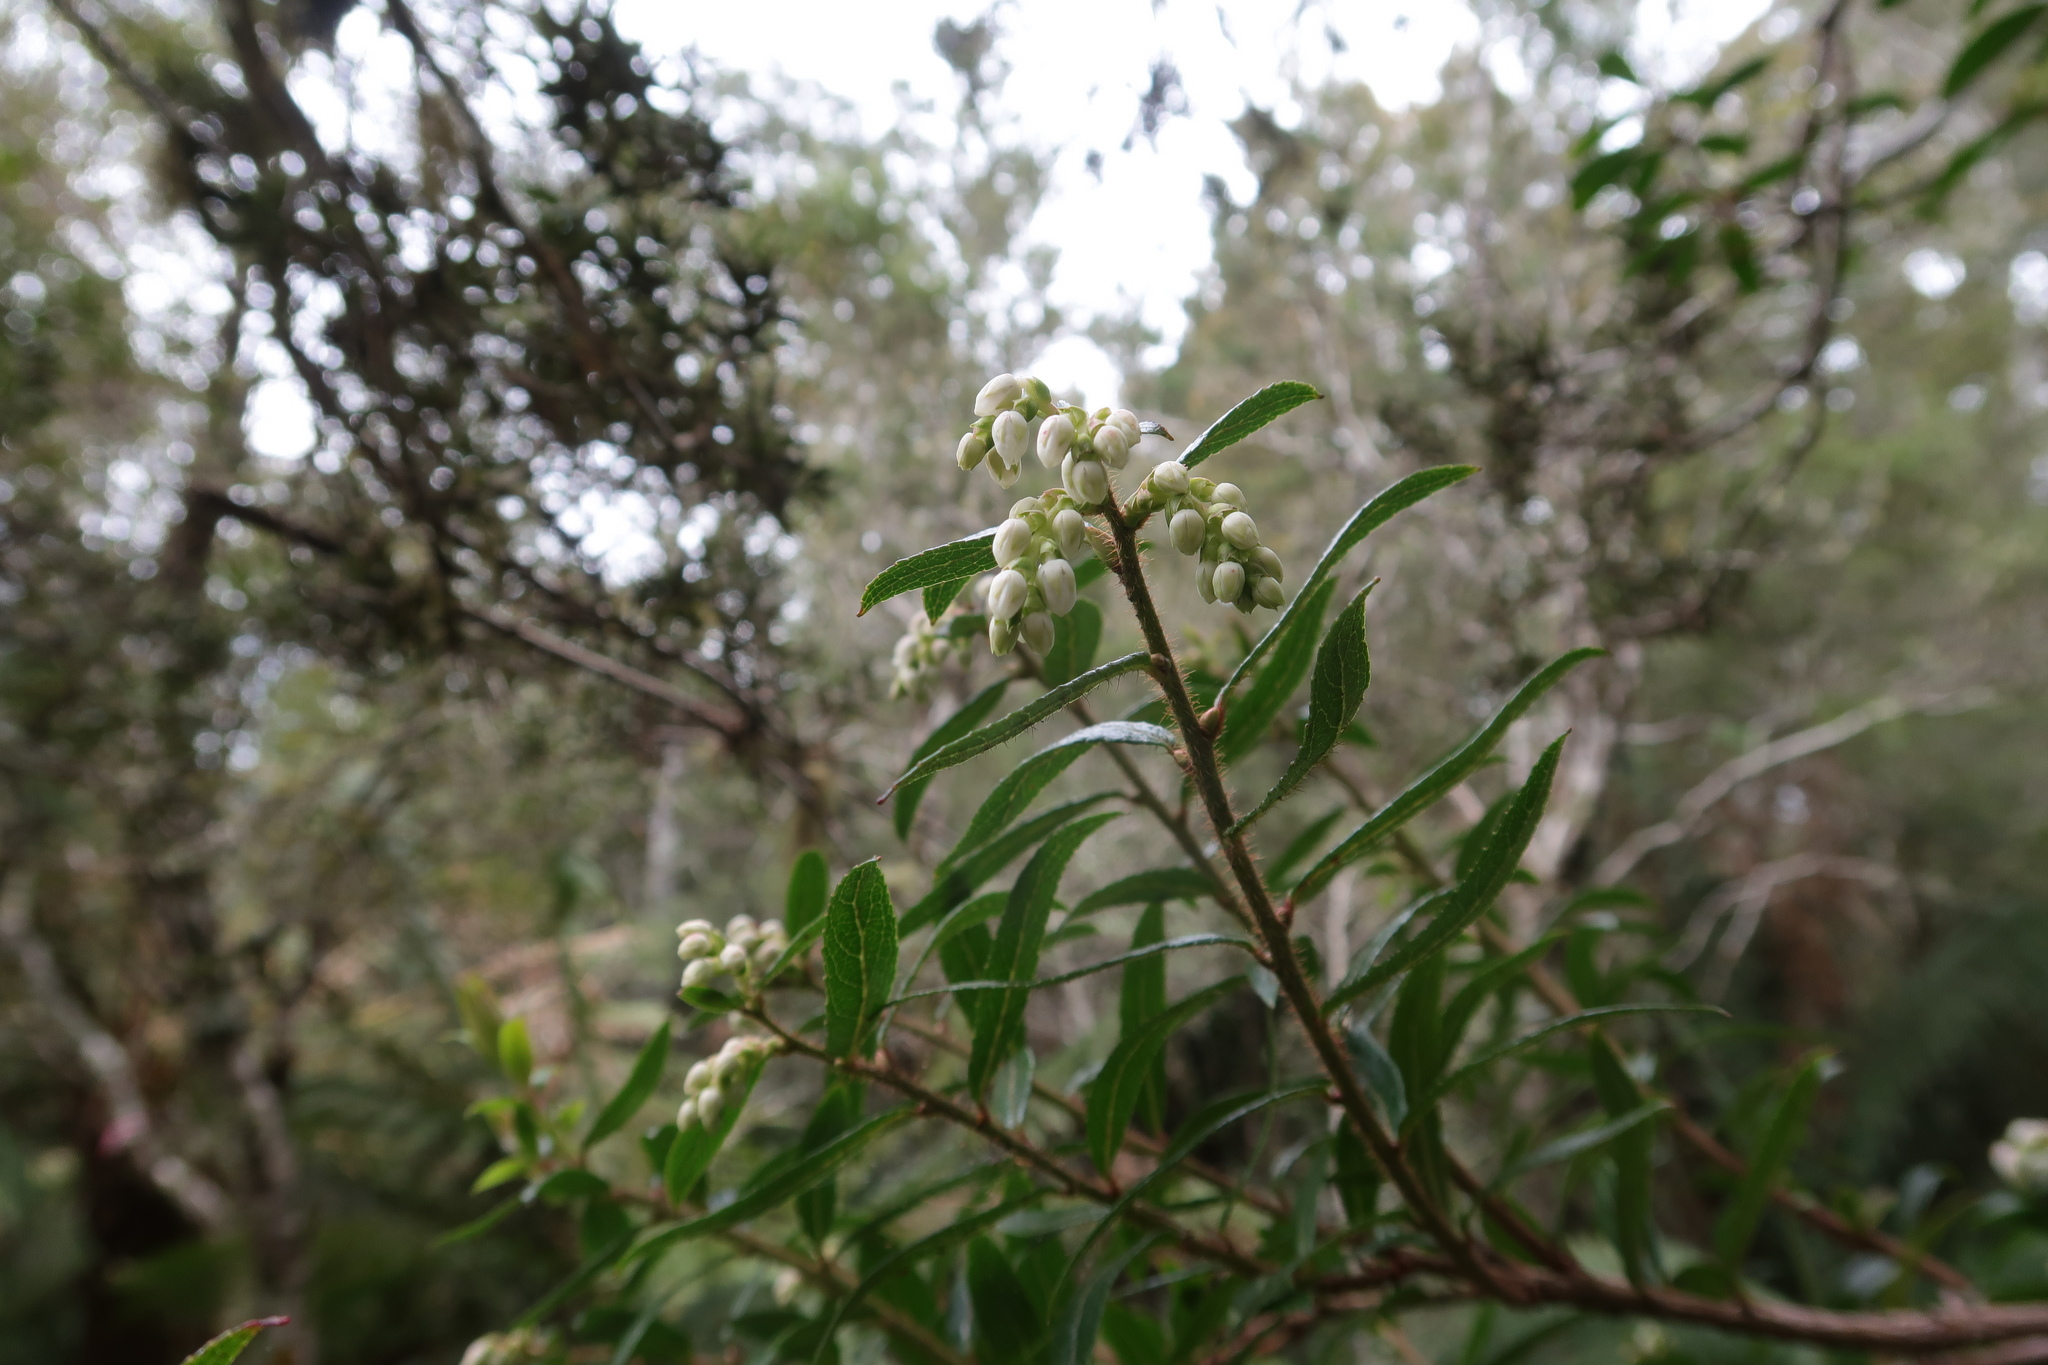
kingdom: Plantae
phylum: Tracheophyta
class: Magnoliopsida
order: Ericales
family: Ericaceae
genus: Gaultheria
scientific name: Gaultheria hispida
